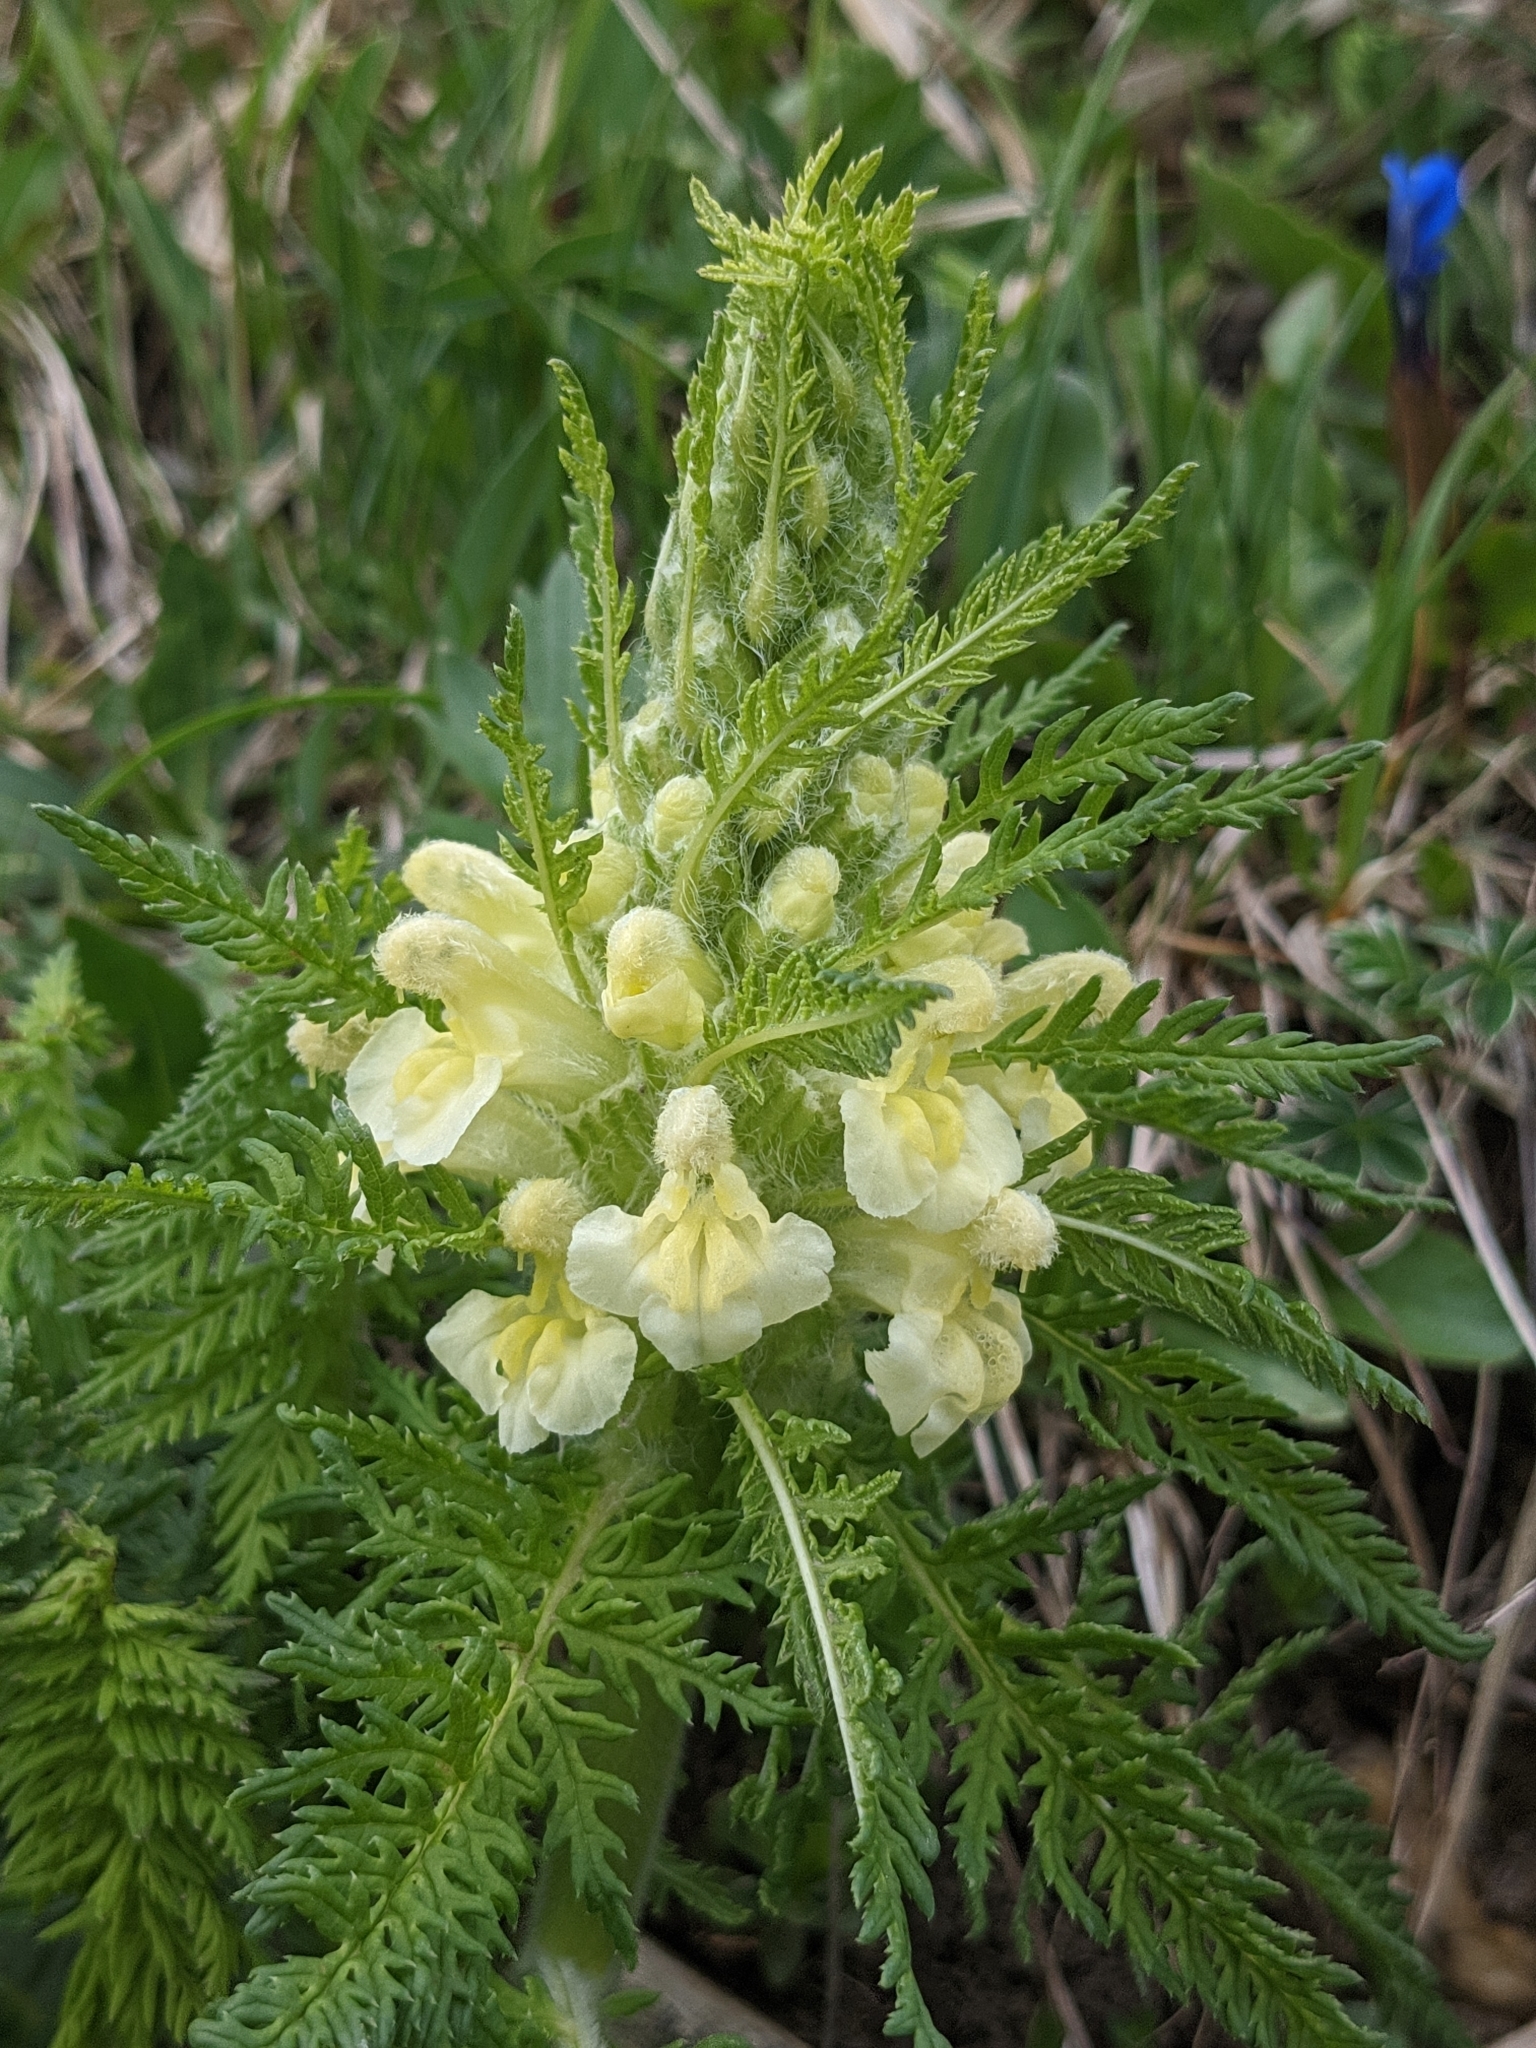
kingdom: Plantae
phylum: Tracheophyta
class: Magnoliopsida
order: Lamiales
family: Orobanchaceae
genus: Pedicularis
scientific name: Pedicularis foliosa
